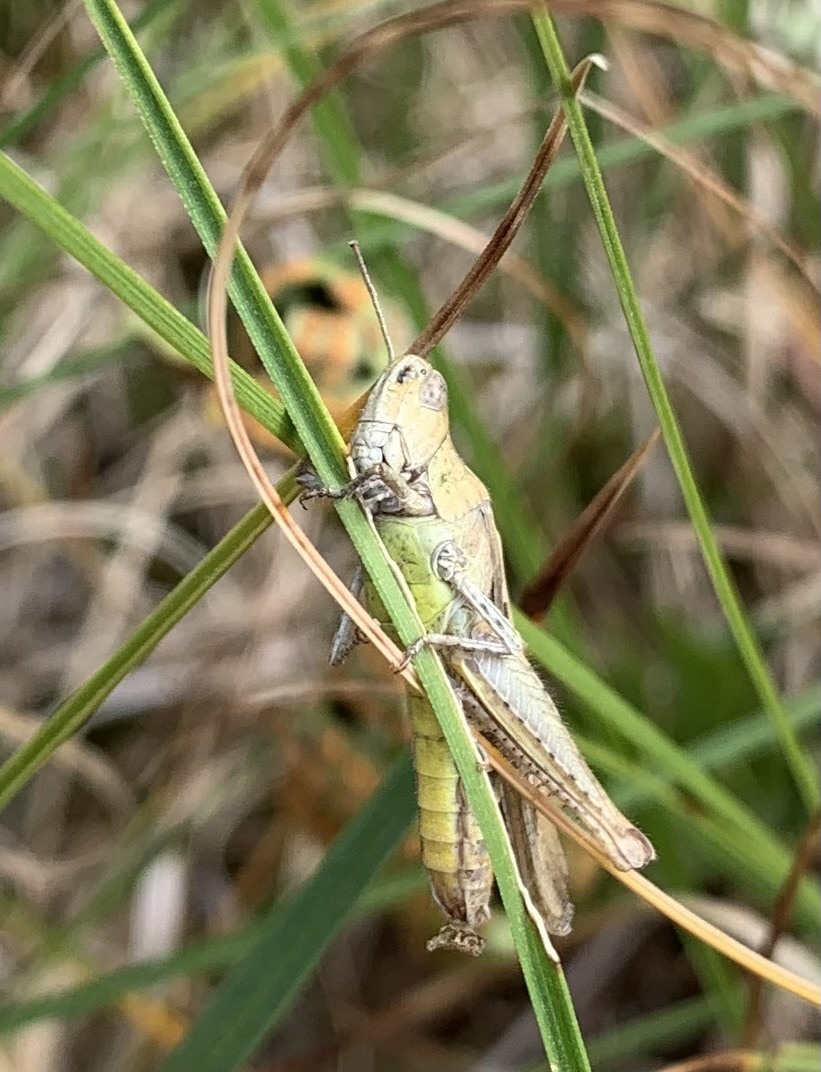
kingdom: Animalia
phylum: Arthropoda
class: Insecta
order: Orthoptera
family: Acrididae
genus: Chorthippus
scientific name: Chorthippus brunneus
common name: Field grasshopper
